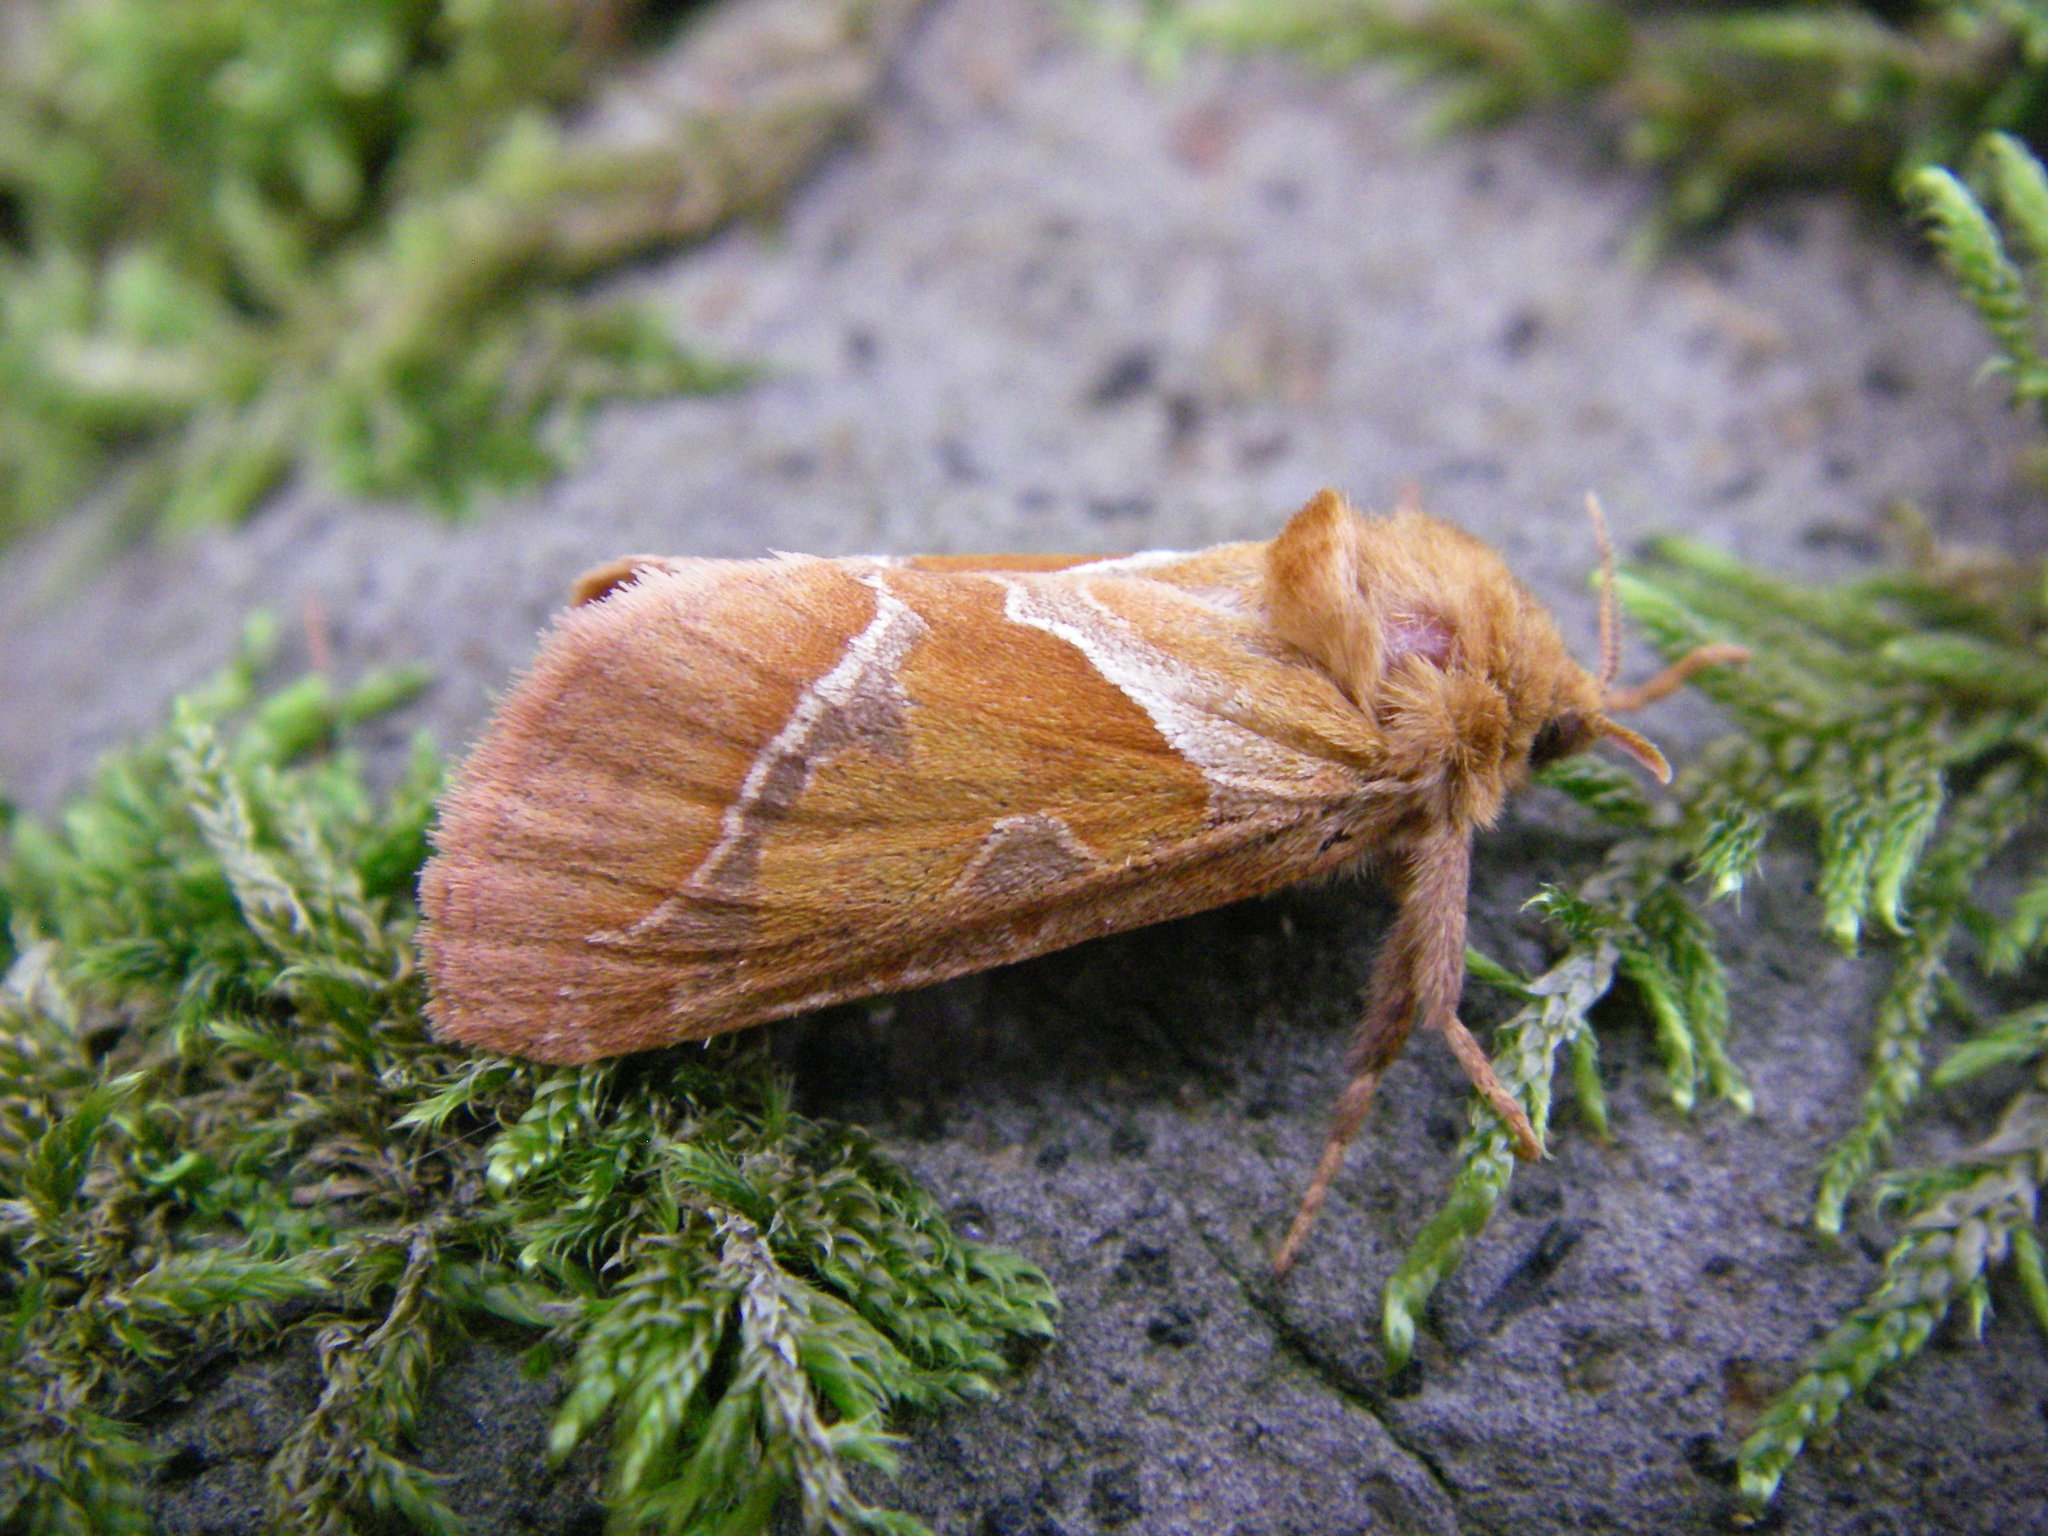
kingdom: Animalia
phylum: Arthropoda
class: Insecta
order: Lepidoptera
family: Hepialidae
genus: Triodia
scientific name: Triodia sylvina
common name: Orange swift
